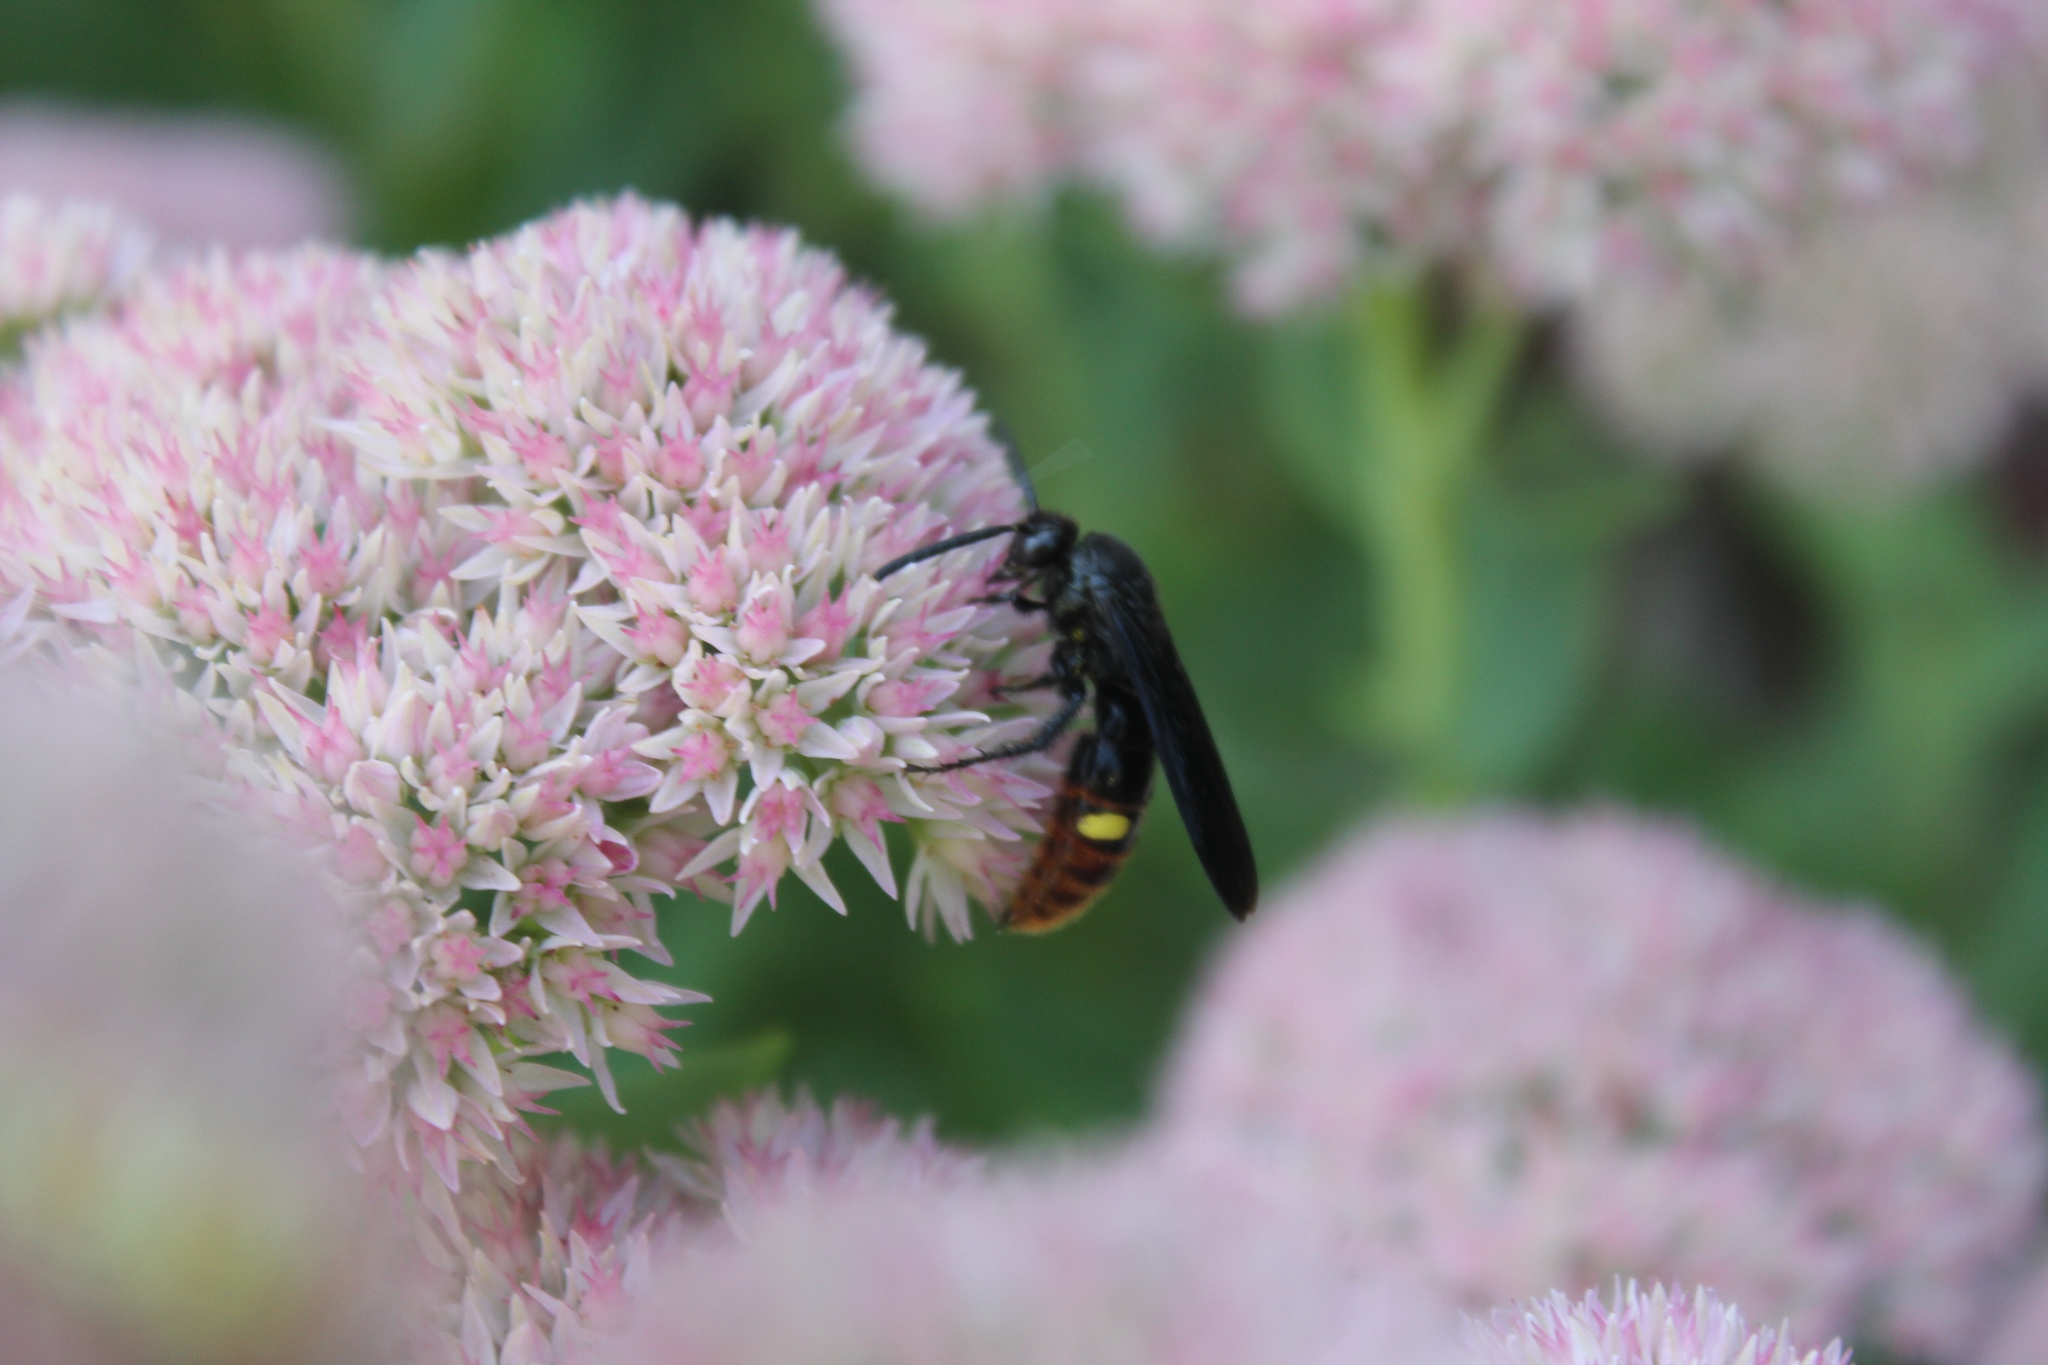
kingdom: Animalia
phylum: Arthropoda
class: Insecta
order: Hymenoptera
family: Scoliidae
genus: Scolia
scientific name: Scolia dubia
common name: Blue-winged scoliid wasp
